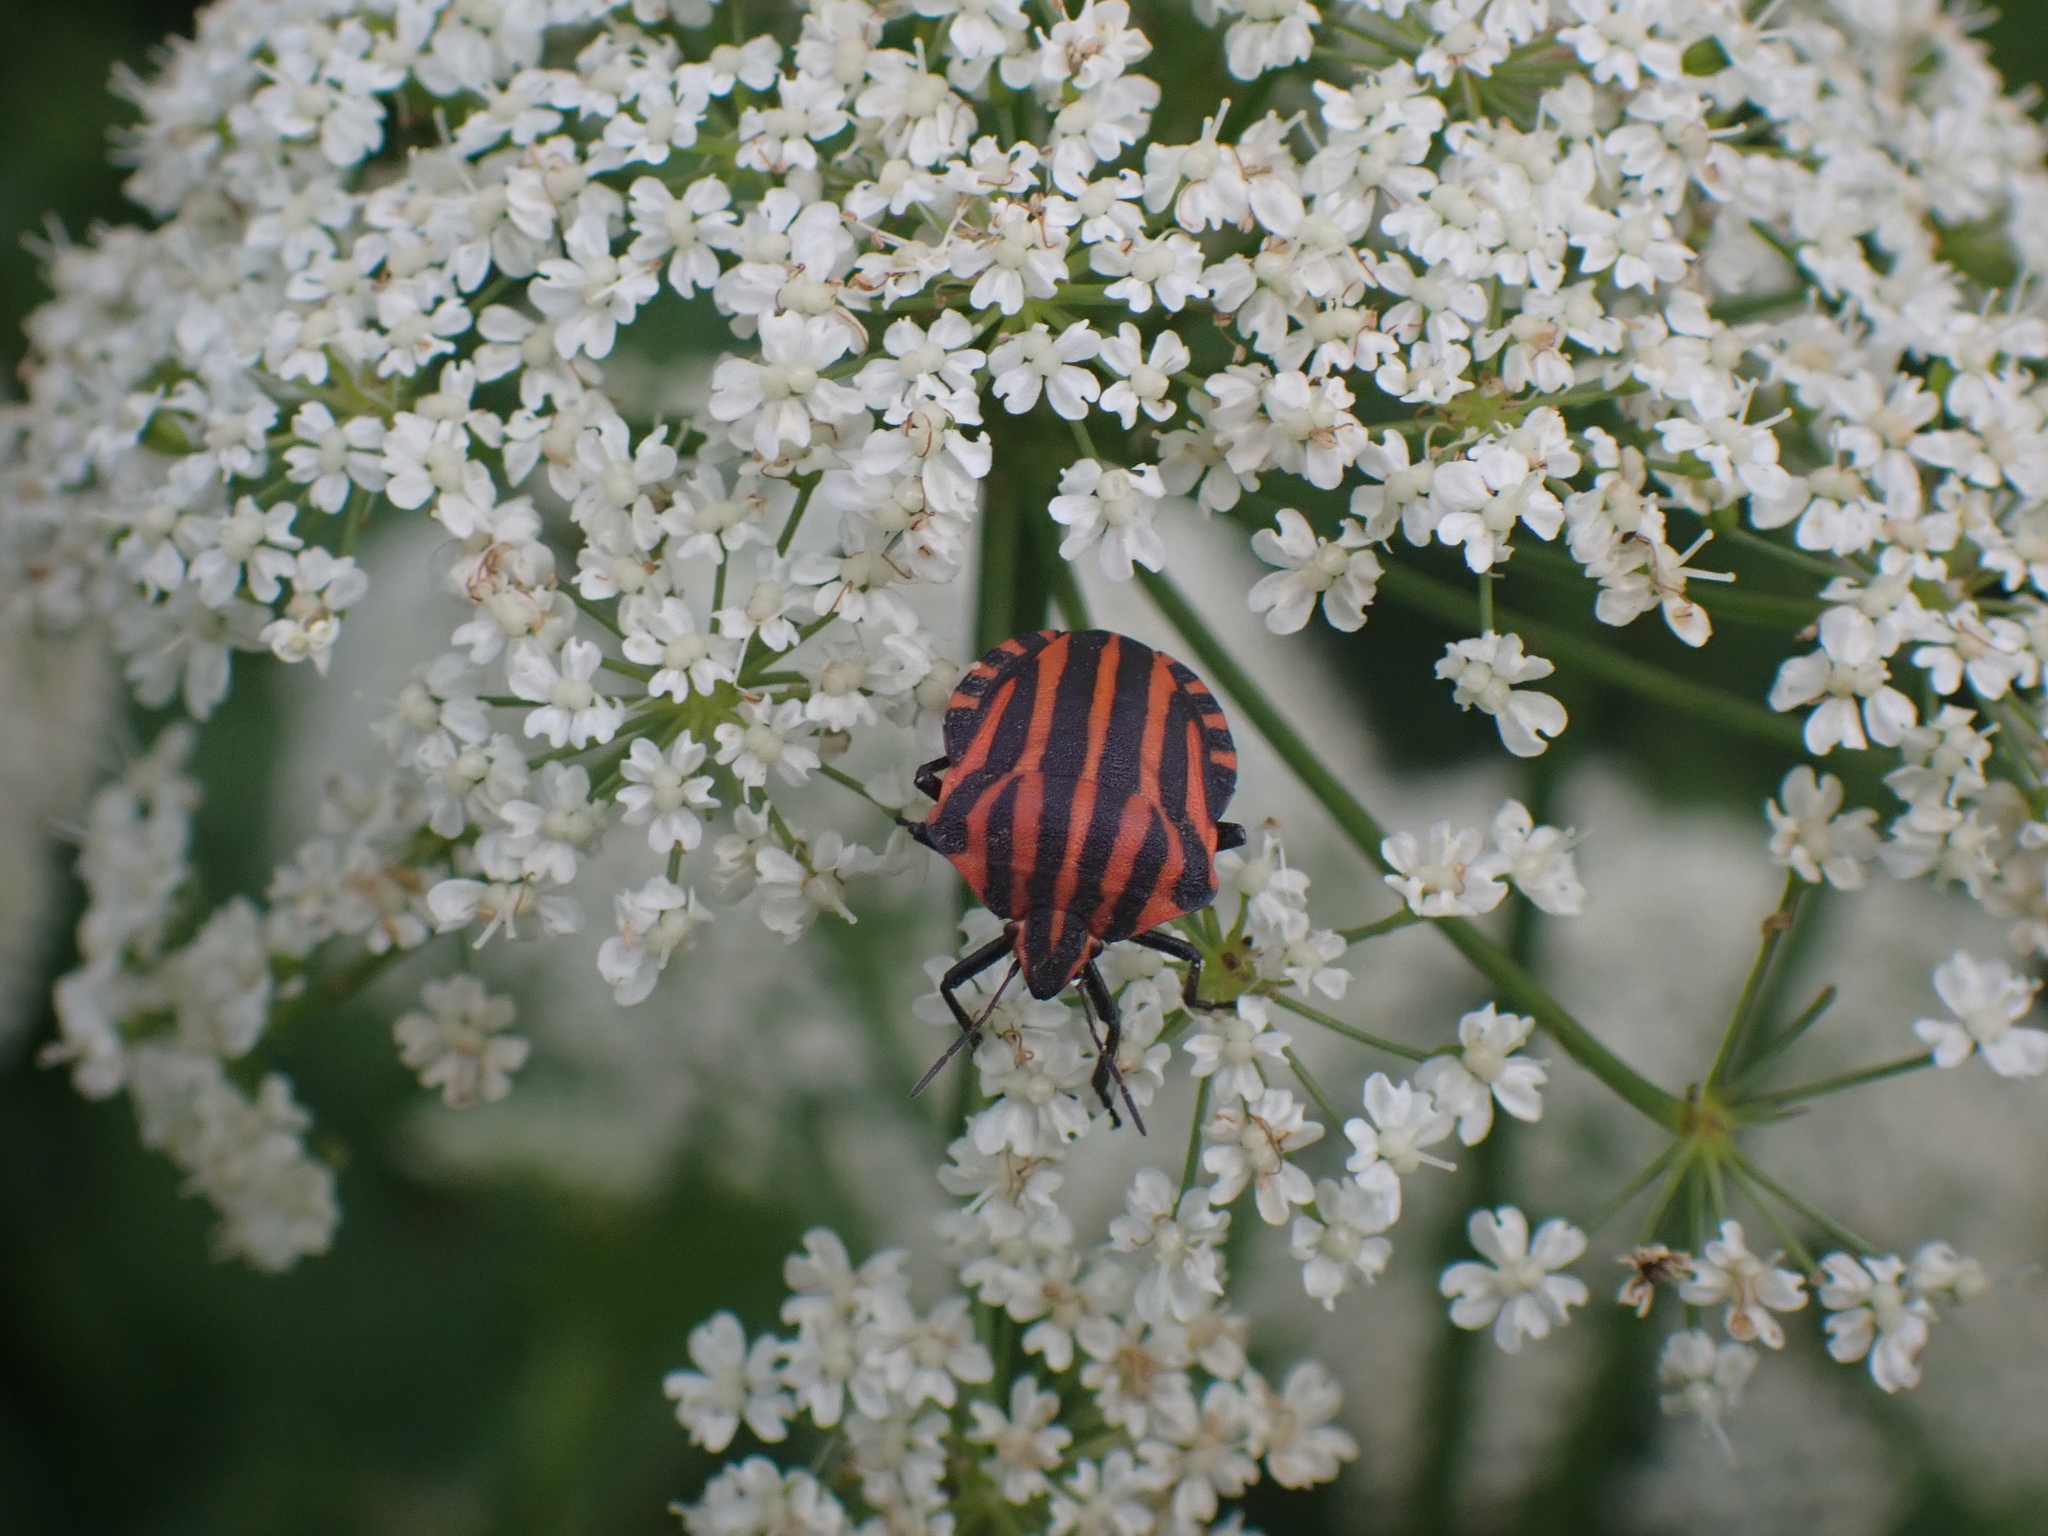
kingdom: Animalia
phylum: Arthropoda
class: Insecta
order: Hemiptera
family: Pentatomidae
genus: Graphosoma
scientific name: Graphosoma italicum
